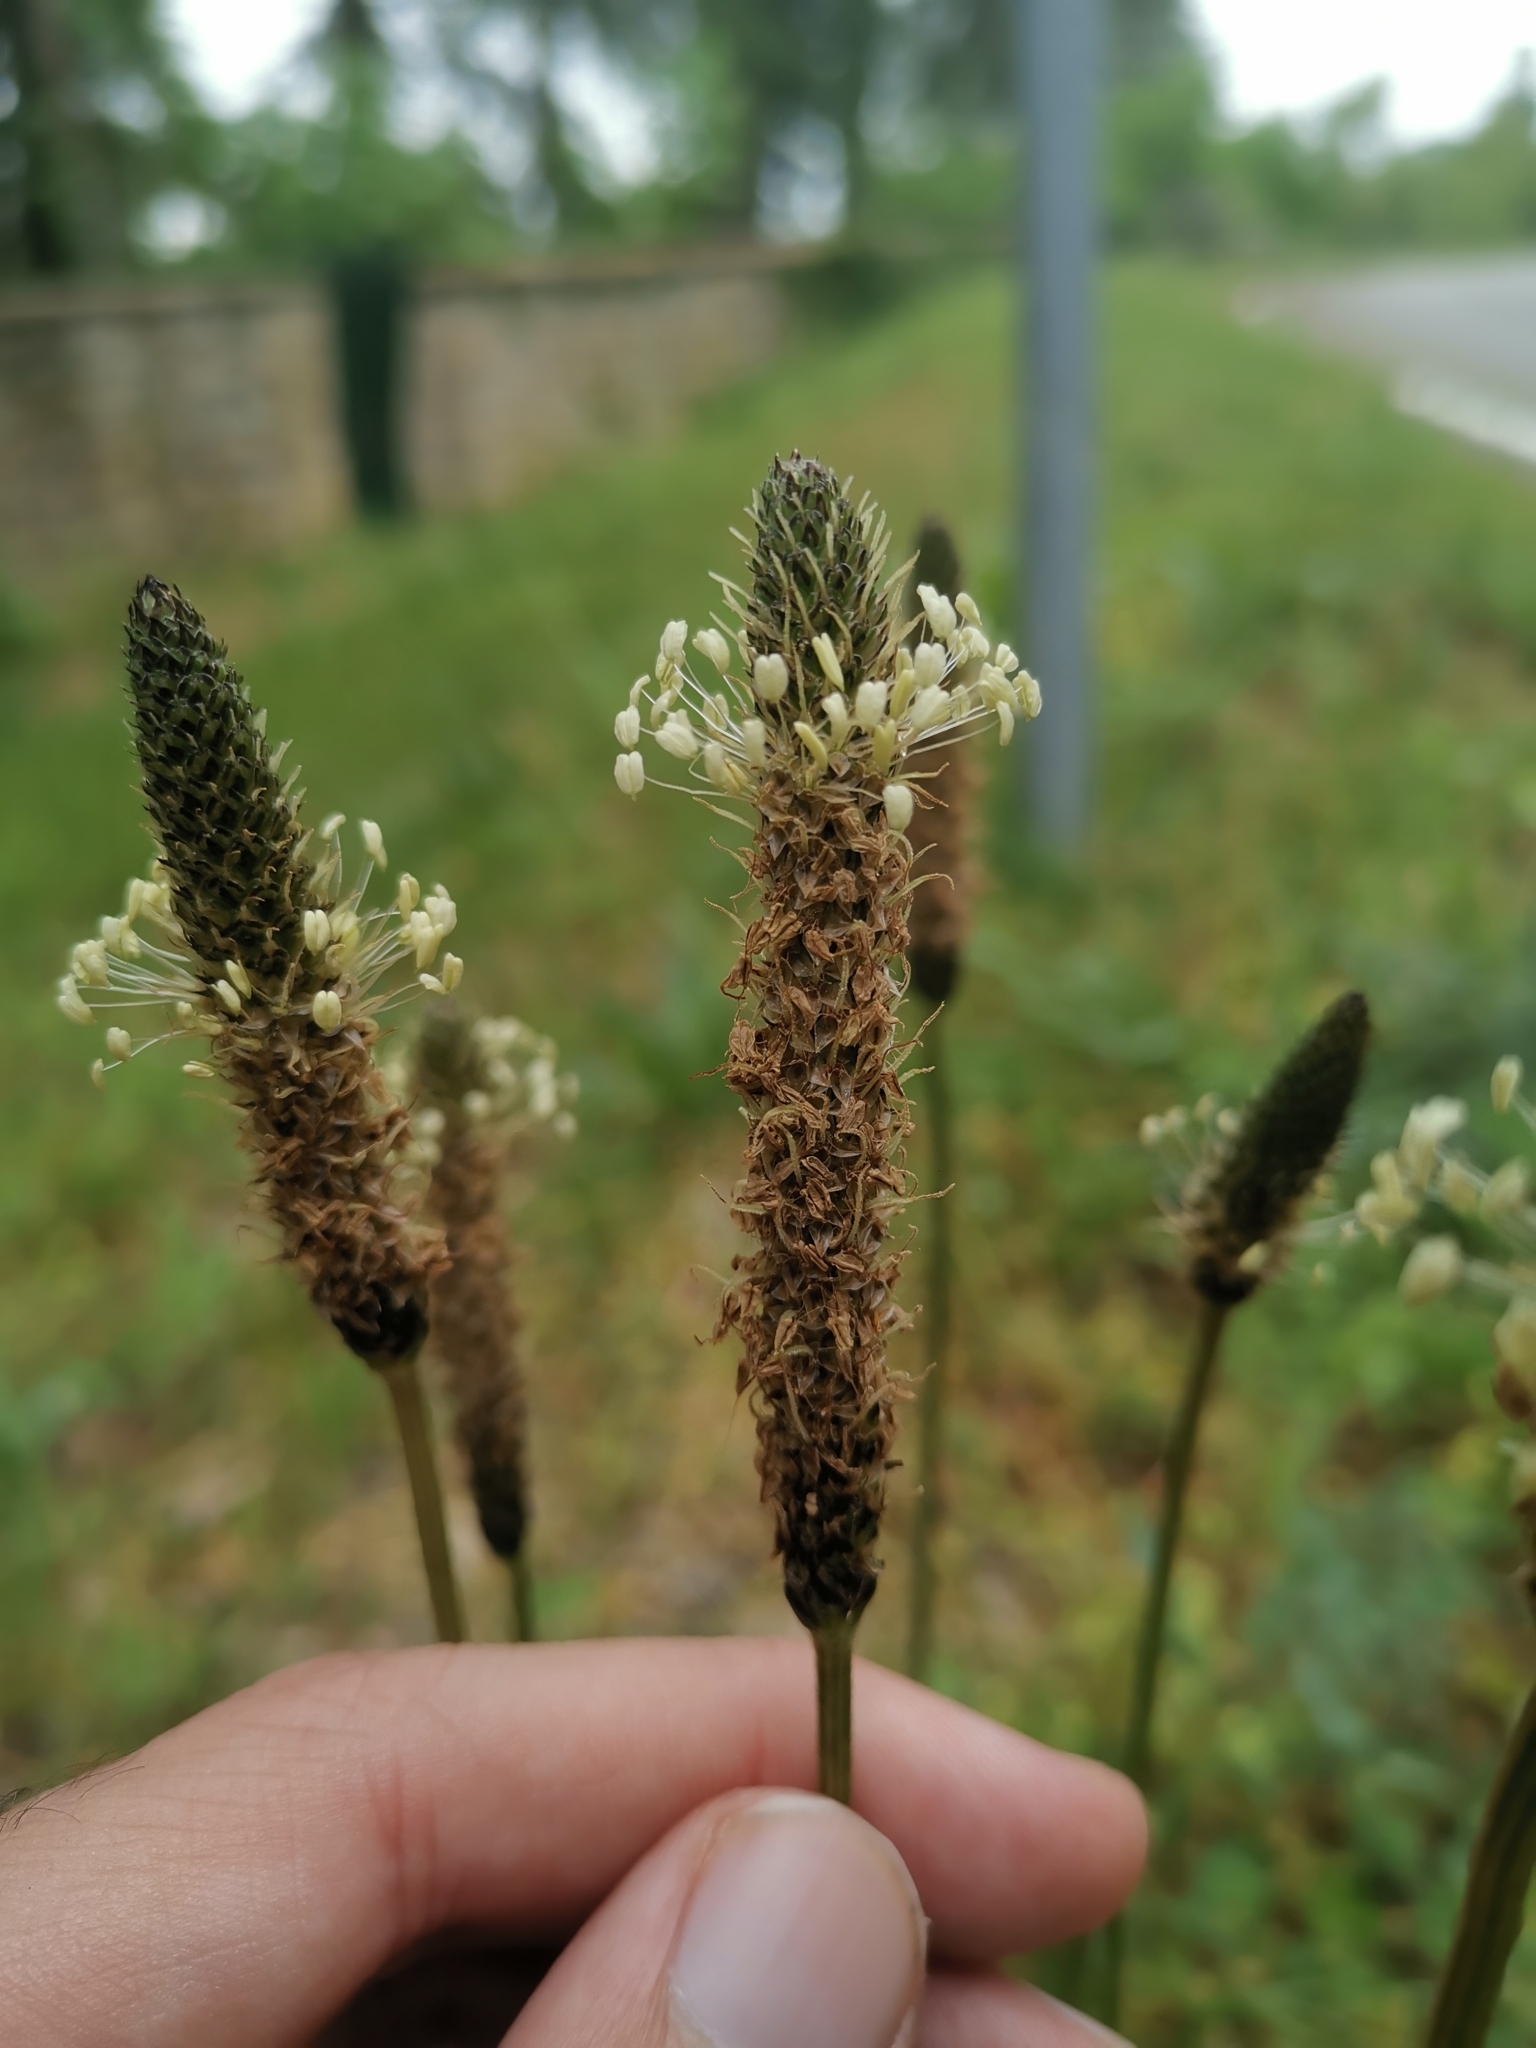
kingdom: Plantae
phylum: Tracheophyta
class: Magnoliopsida
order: Lamiales
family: Plantaginaceae
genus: Plantago
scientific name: Plantago lanceolata
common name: Ribwort plantain
